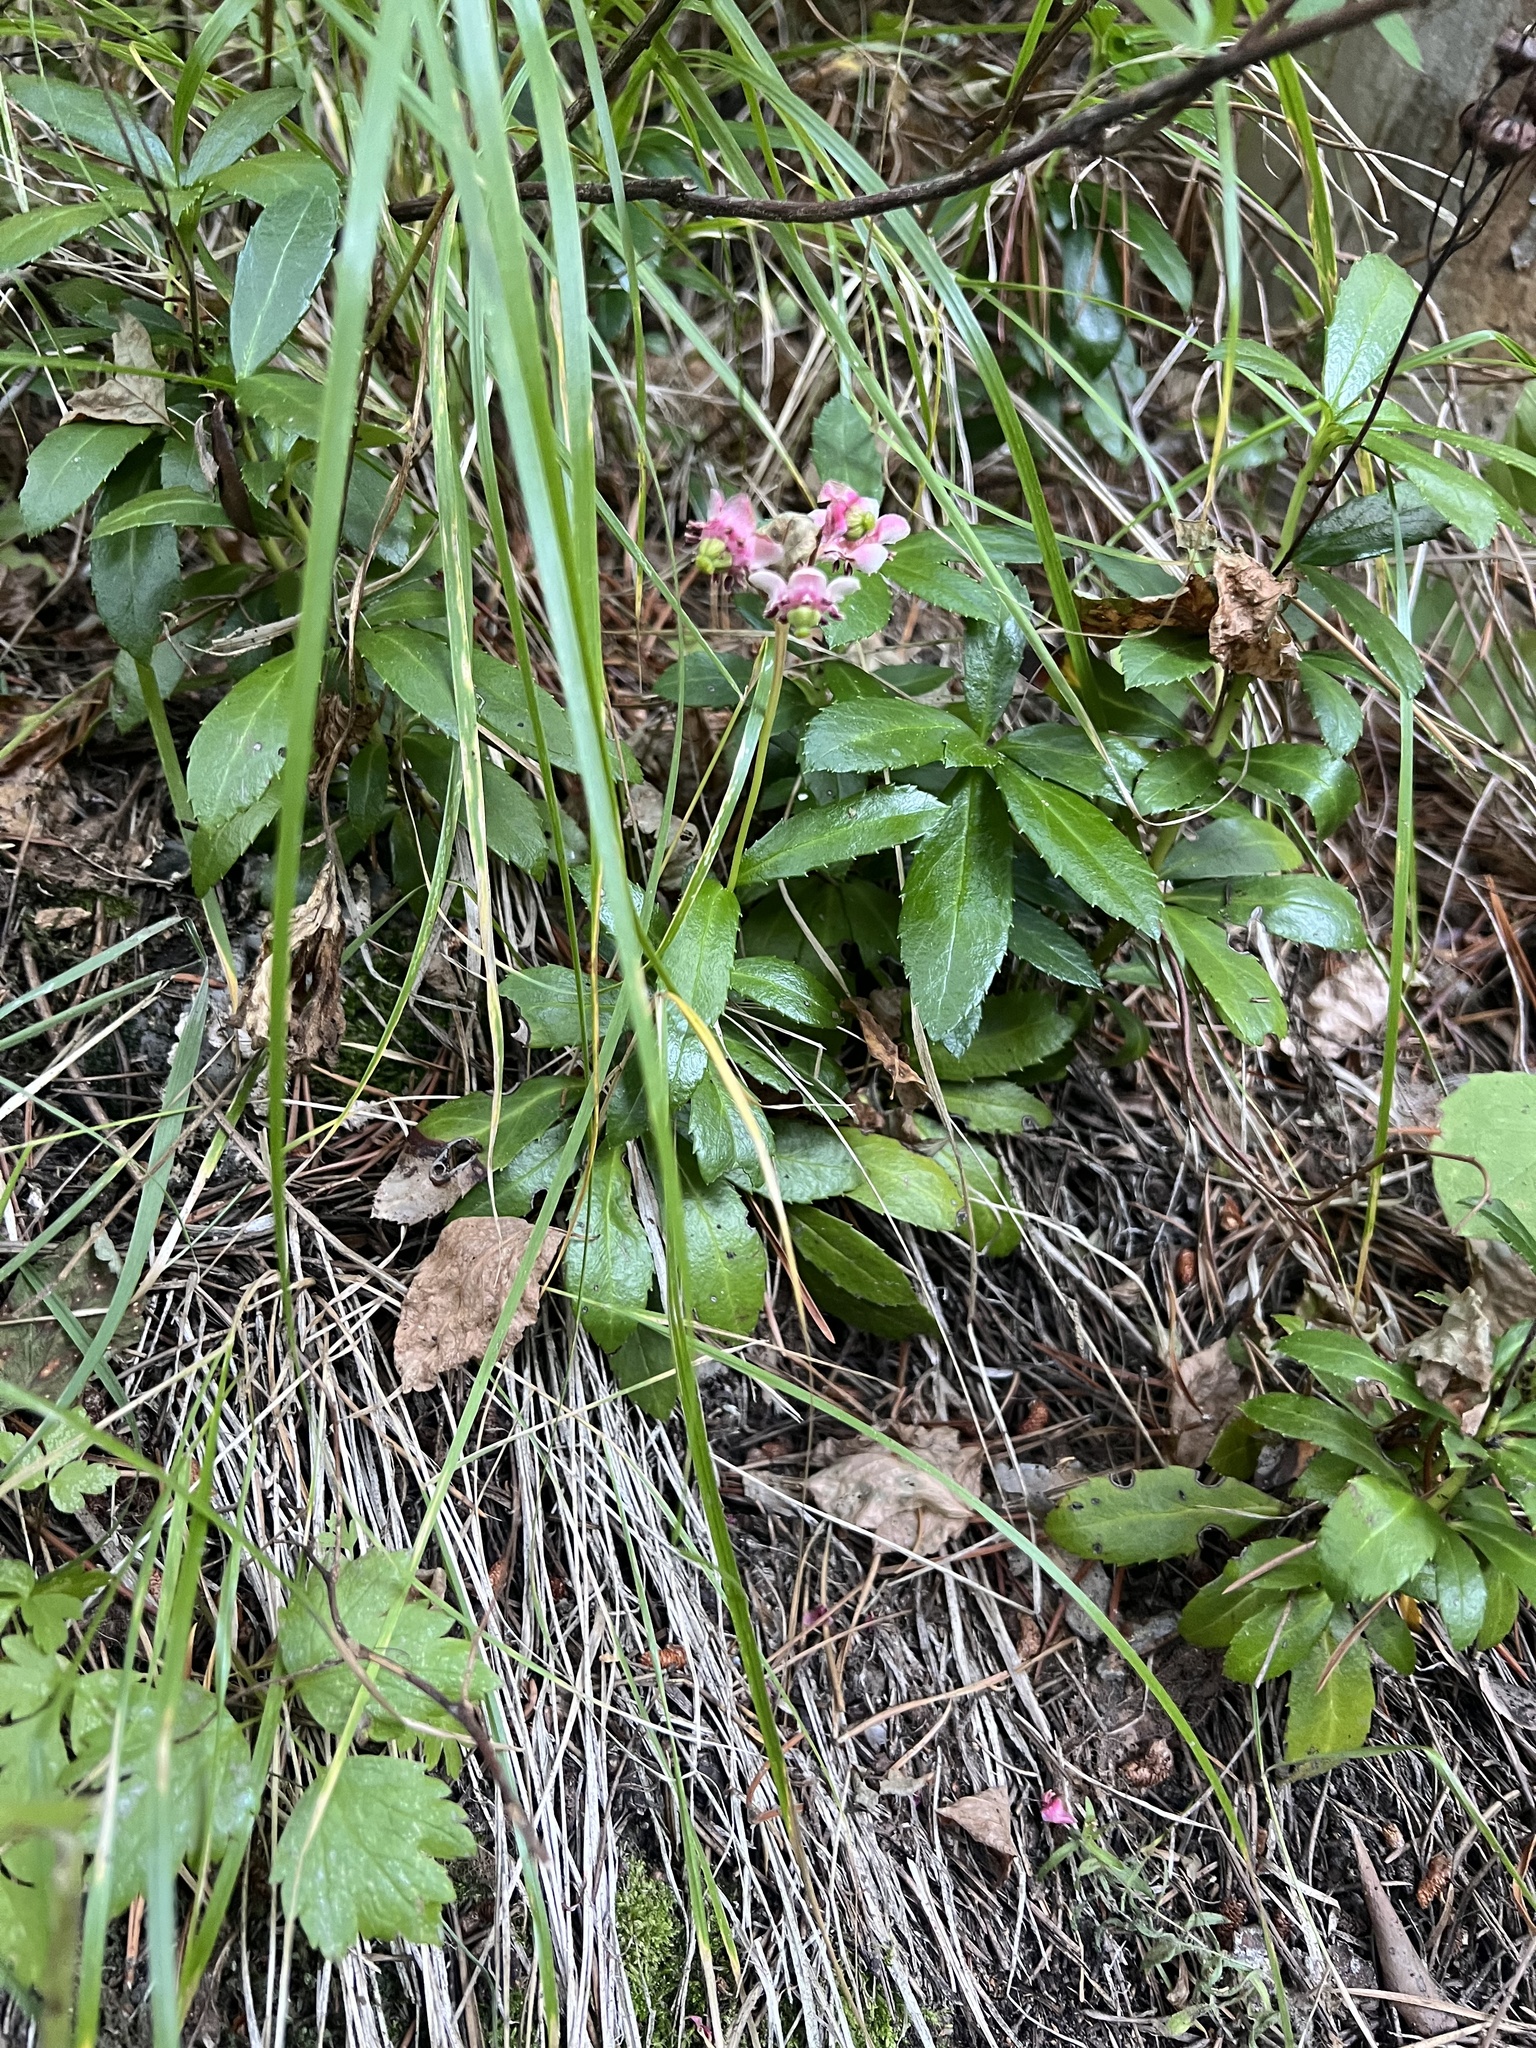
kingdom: Plantae
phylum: Tracheophyta
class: Magnoliopsida
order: Ericales
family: Ericaceae
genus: Chimaphila
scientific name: Chimaphila umbellata
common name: Pipsissewa
